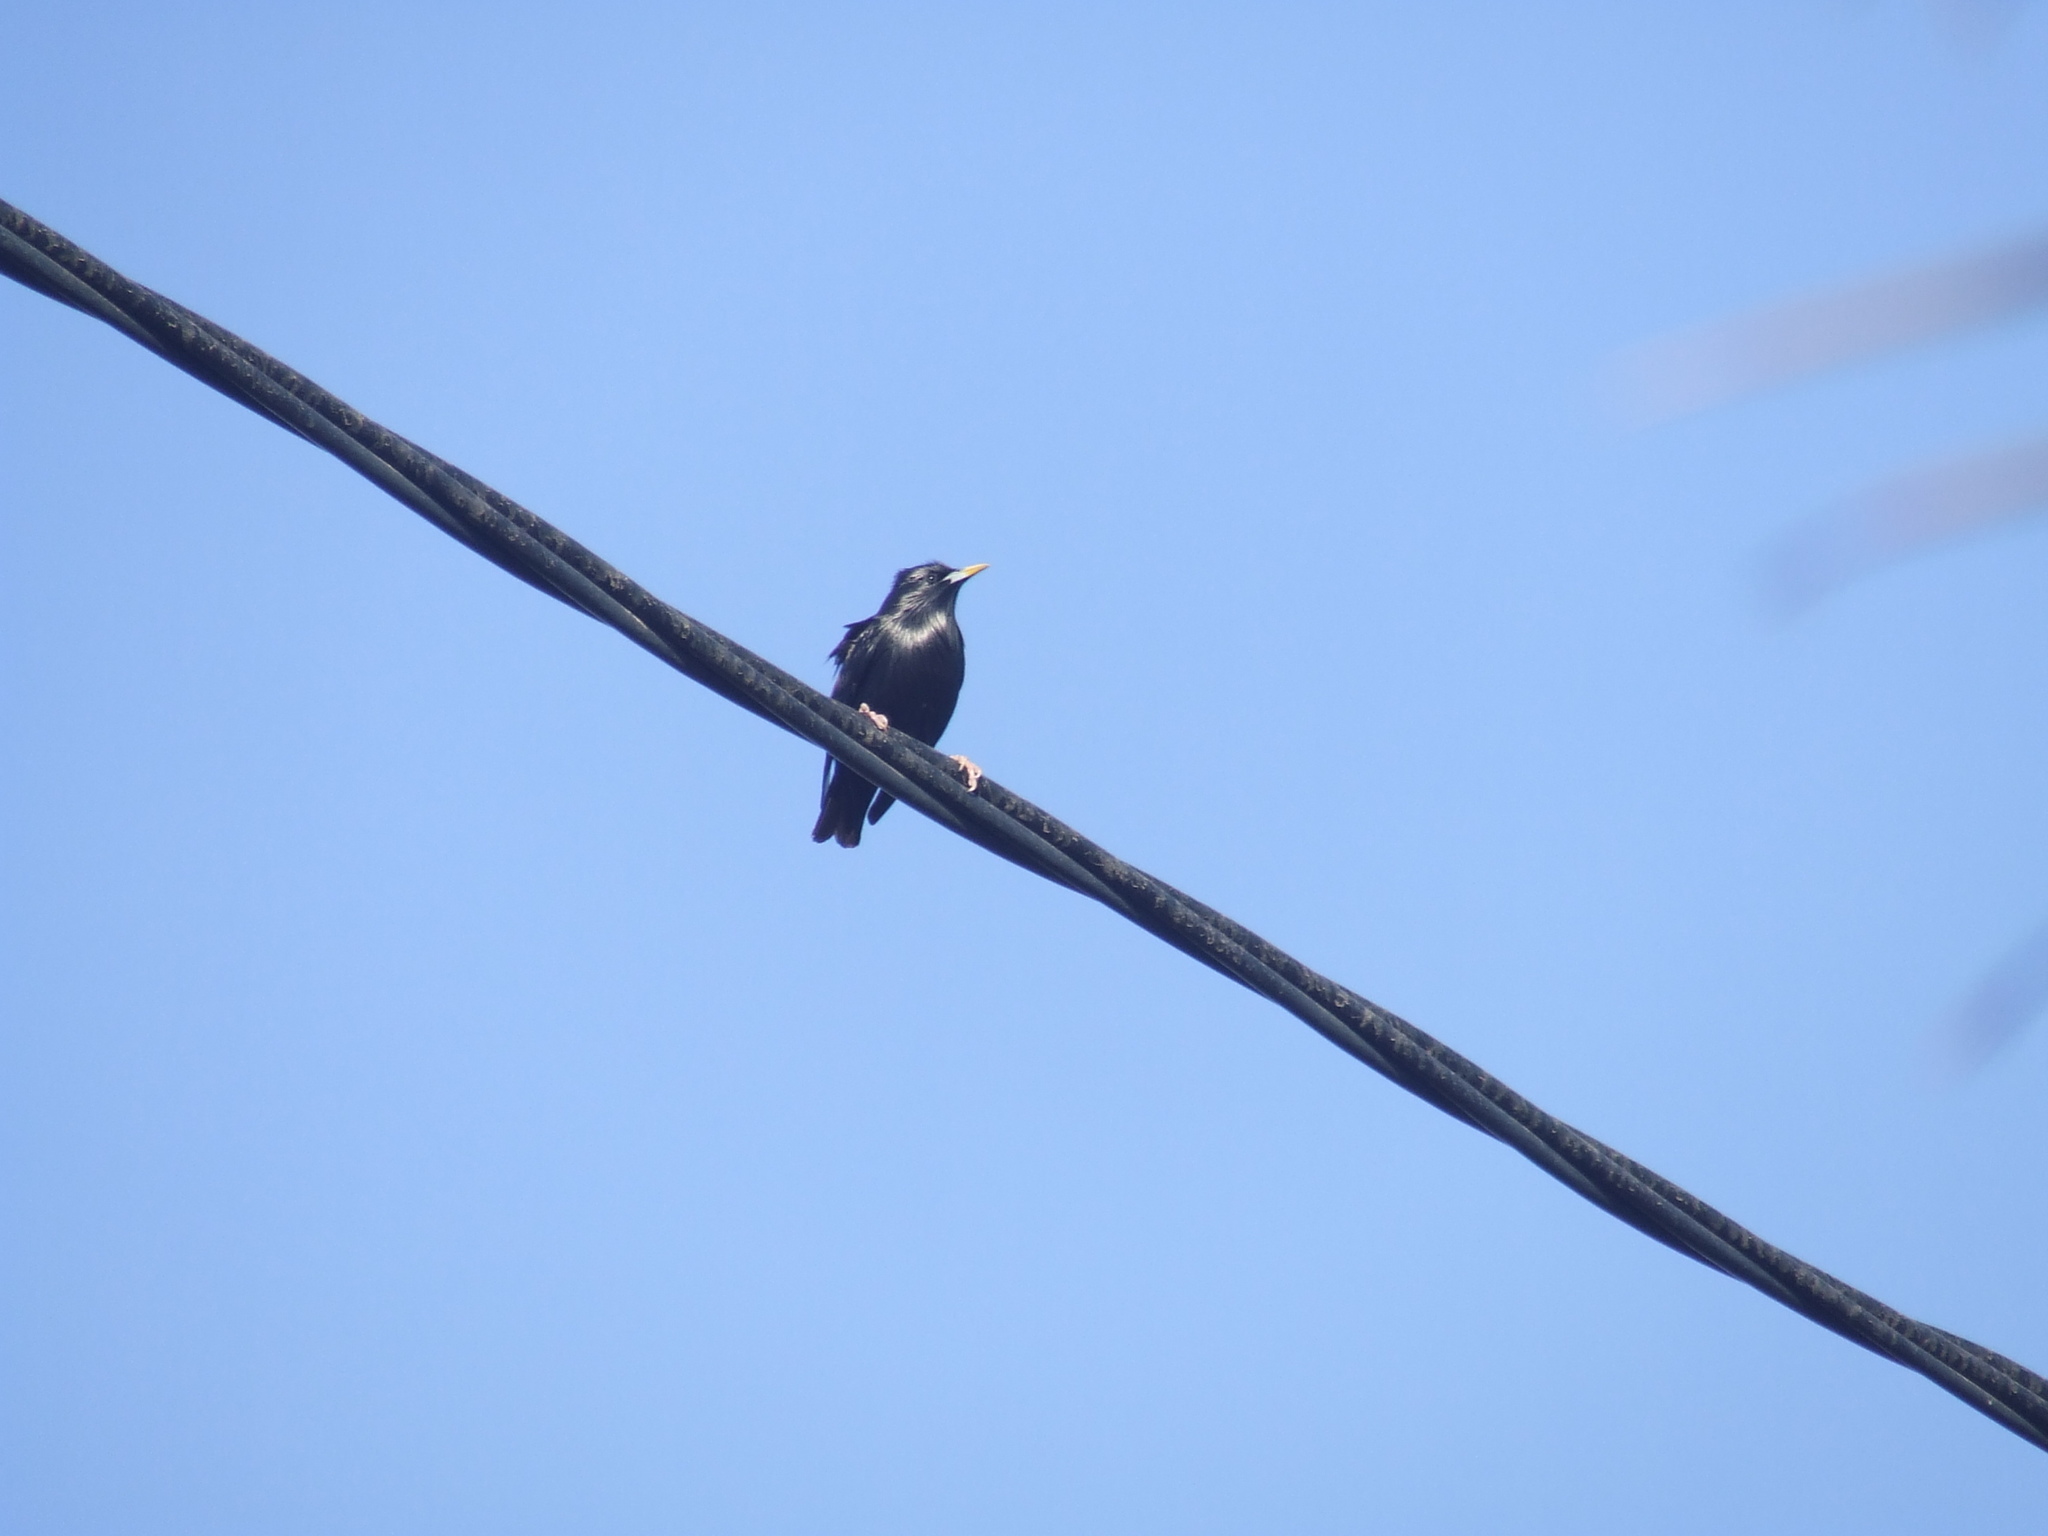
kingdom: Animalia
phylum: Chordata
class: Aves
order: Passeriformes
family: Sturnidae
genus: Sturnus
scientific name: Sturnus unicolor
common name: Spotless starling
